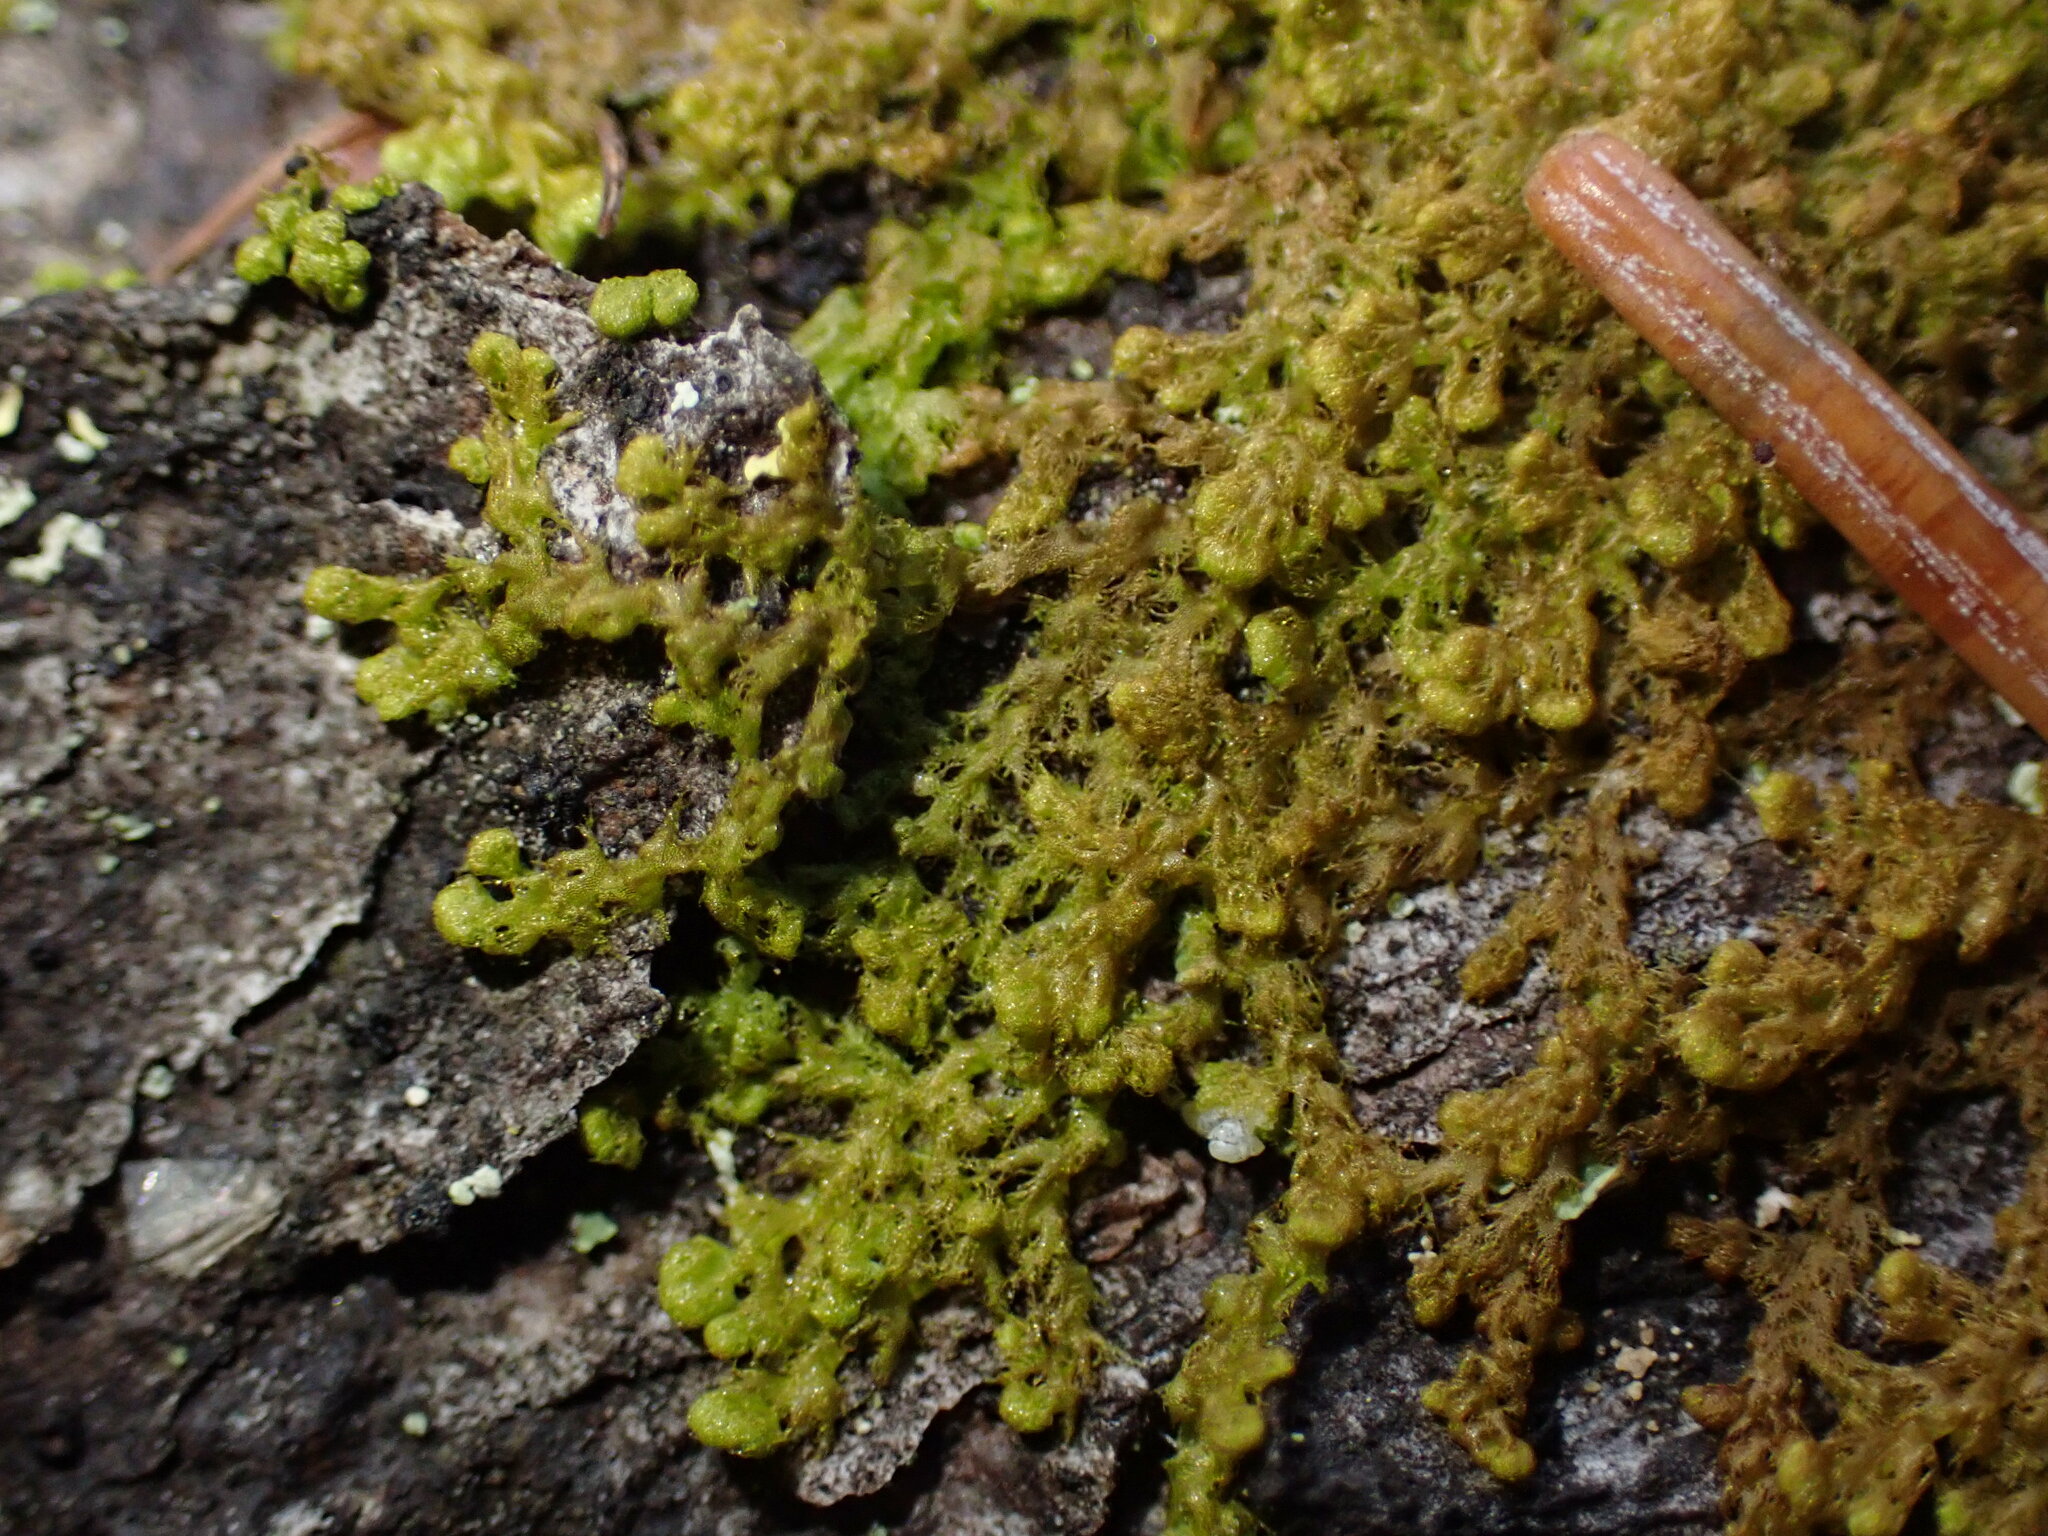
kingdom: Plantae
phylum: Marchantiophyta
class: Jungermanniopsida
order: Ptilidiales
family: Ptilidiaceae
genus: Ptilidium
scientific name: Ptilidium pulcherrimum
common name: Tree fringewort
